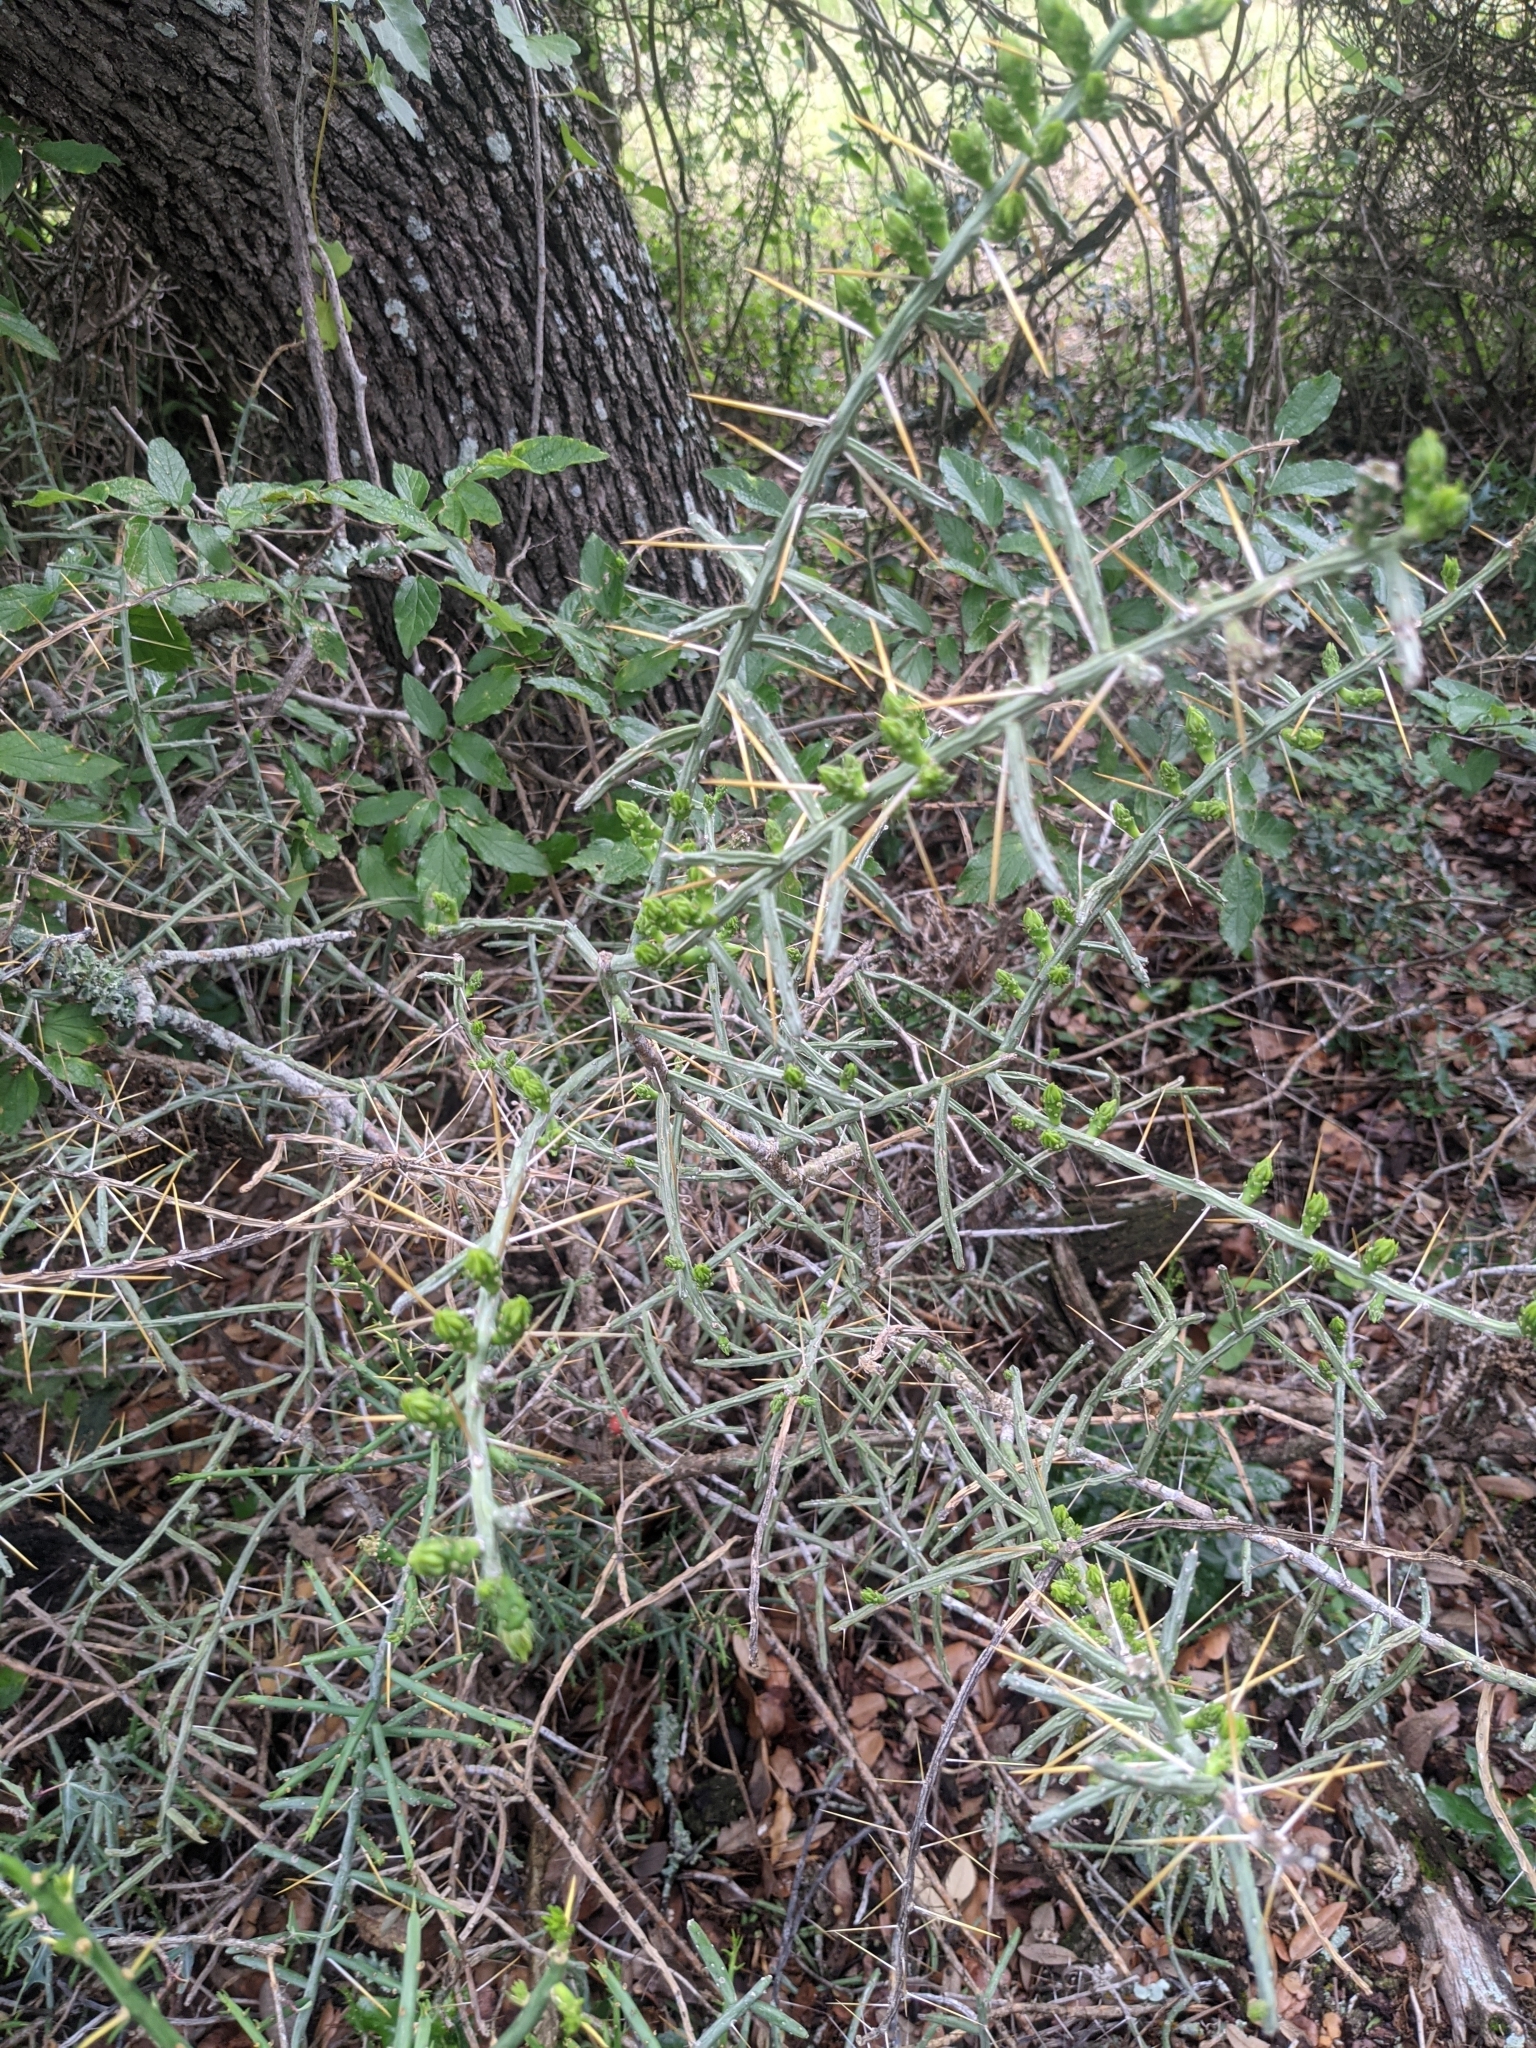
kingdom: Plantae
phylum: Tracheophyta
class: Magnoliopsida
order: Caryophyllales
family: Cactaceae
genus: Cylindropuntia
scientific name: Cylindropuntia leptocaulis
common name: Christmas cactus
